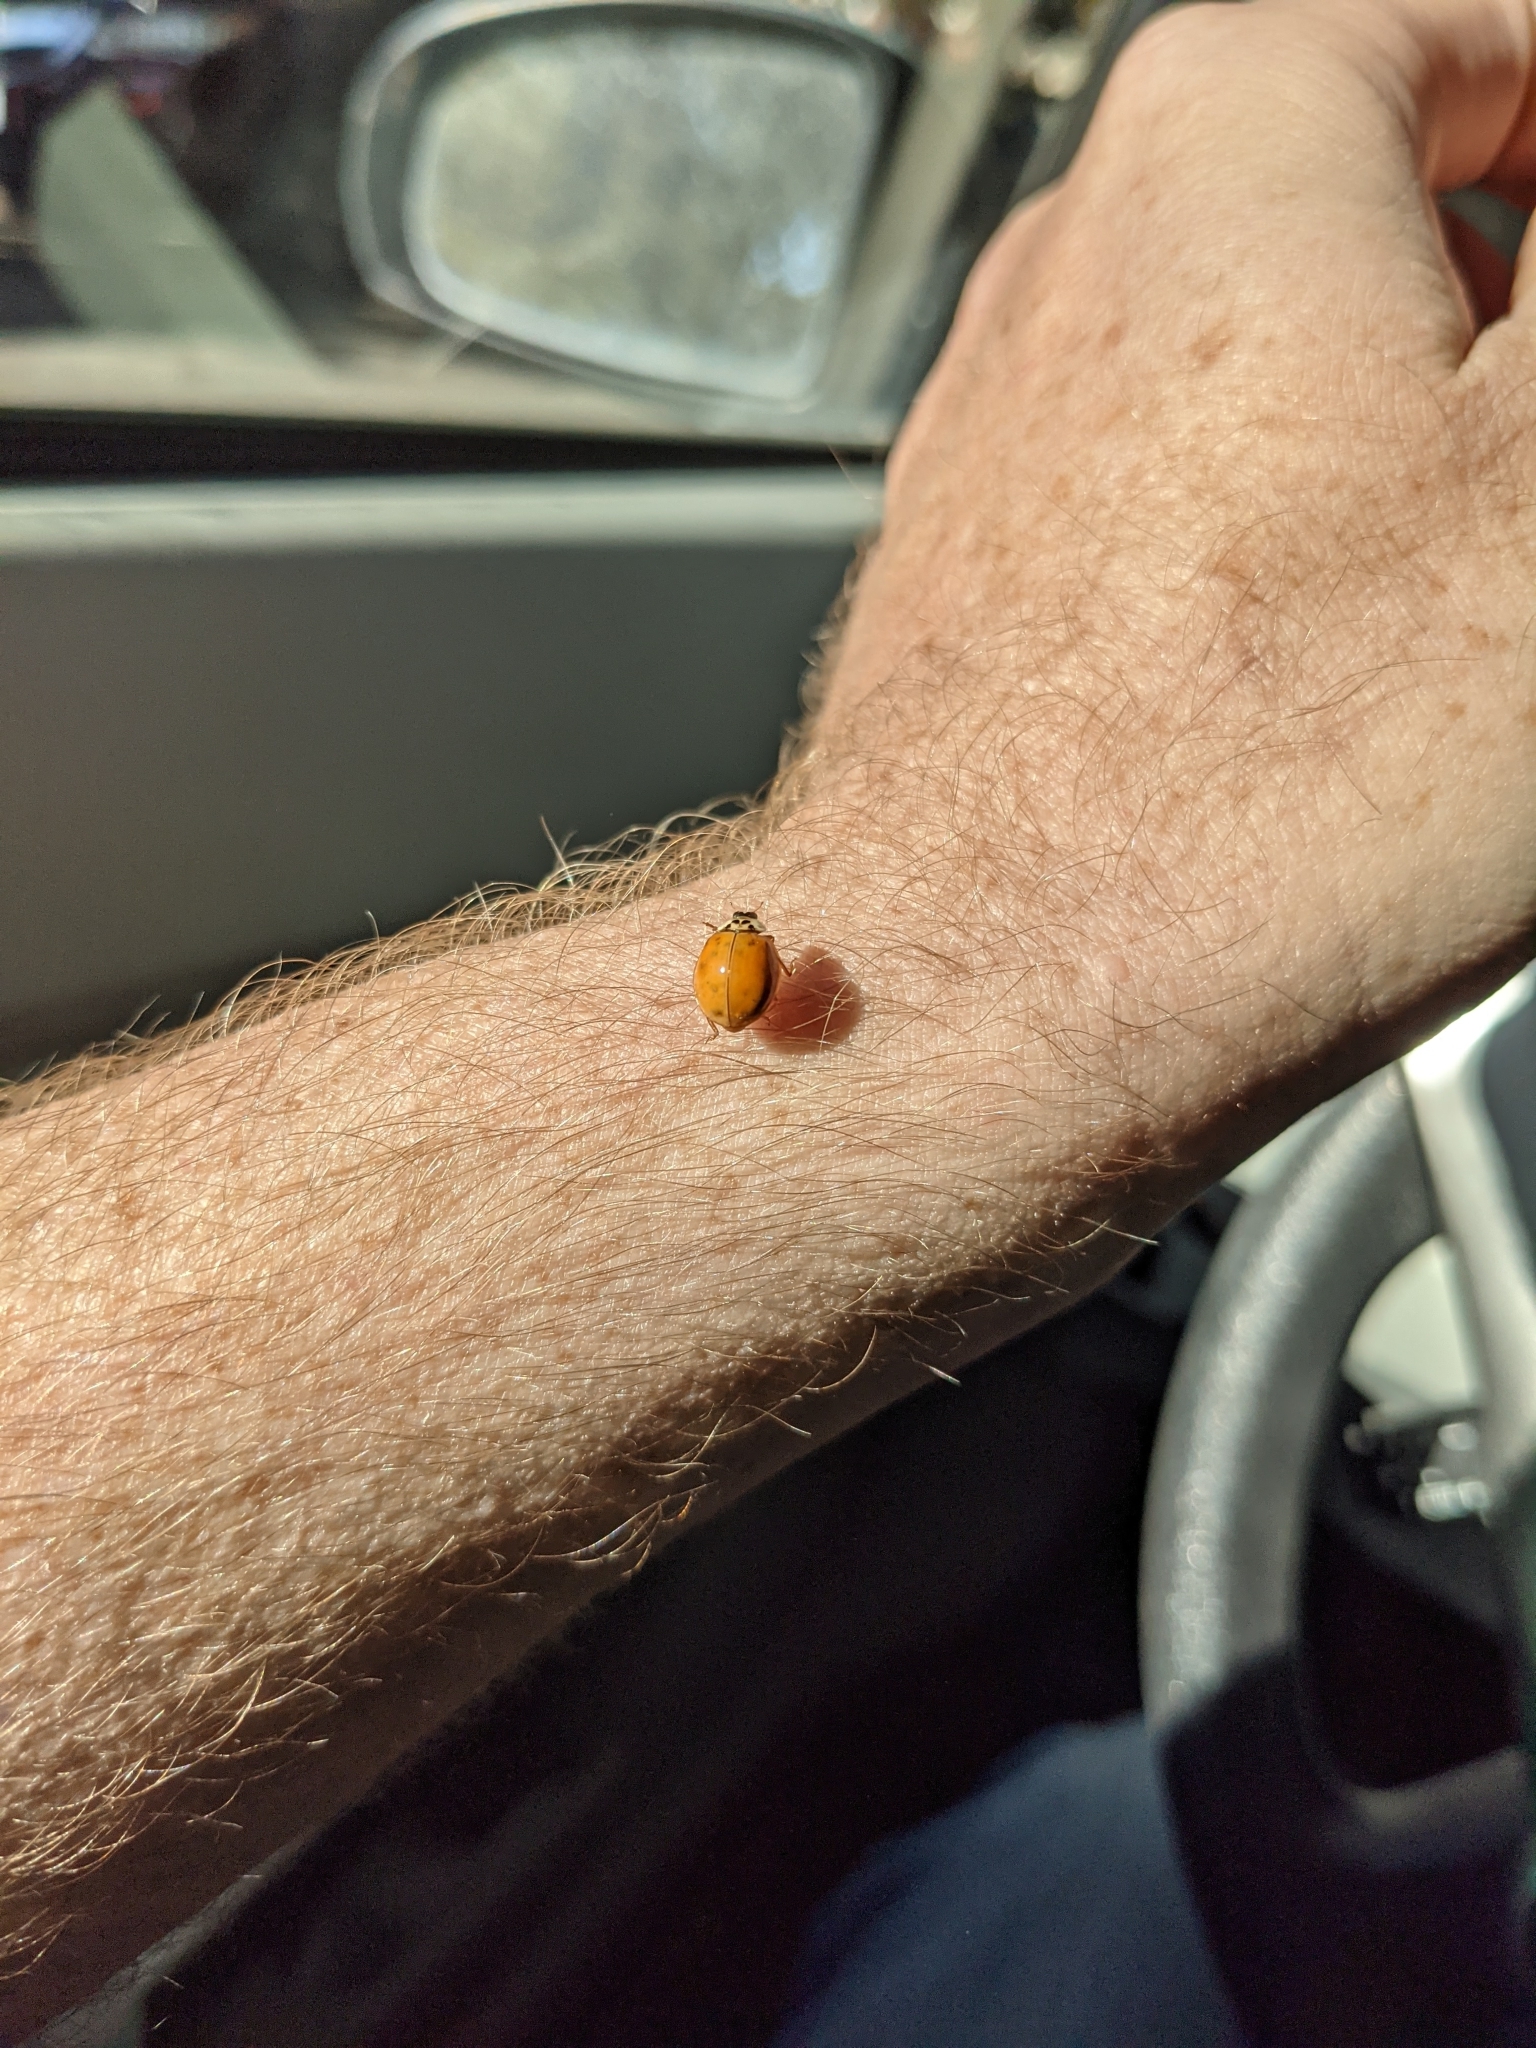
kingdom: Animalia
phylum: Arthropoda
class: Insecta
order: Coleoptera
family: Coccinellidae
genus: Harmonia
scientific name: Harmonia axyridis
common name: Harlequin ladybird
